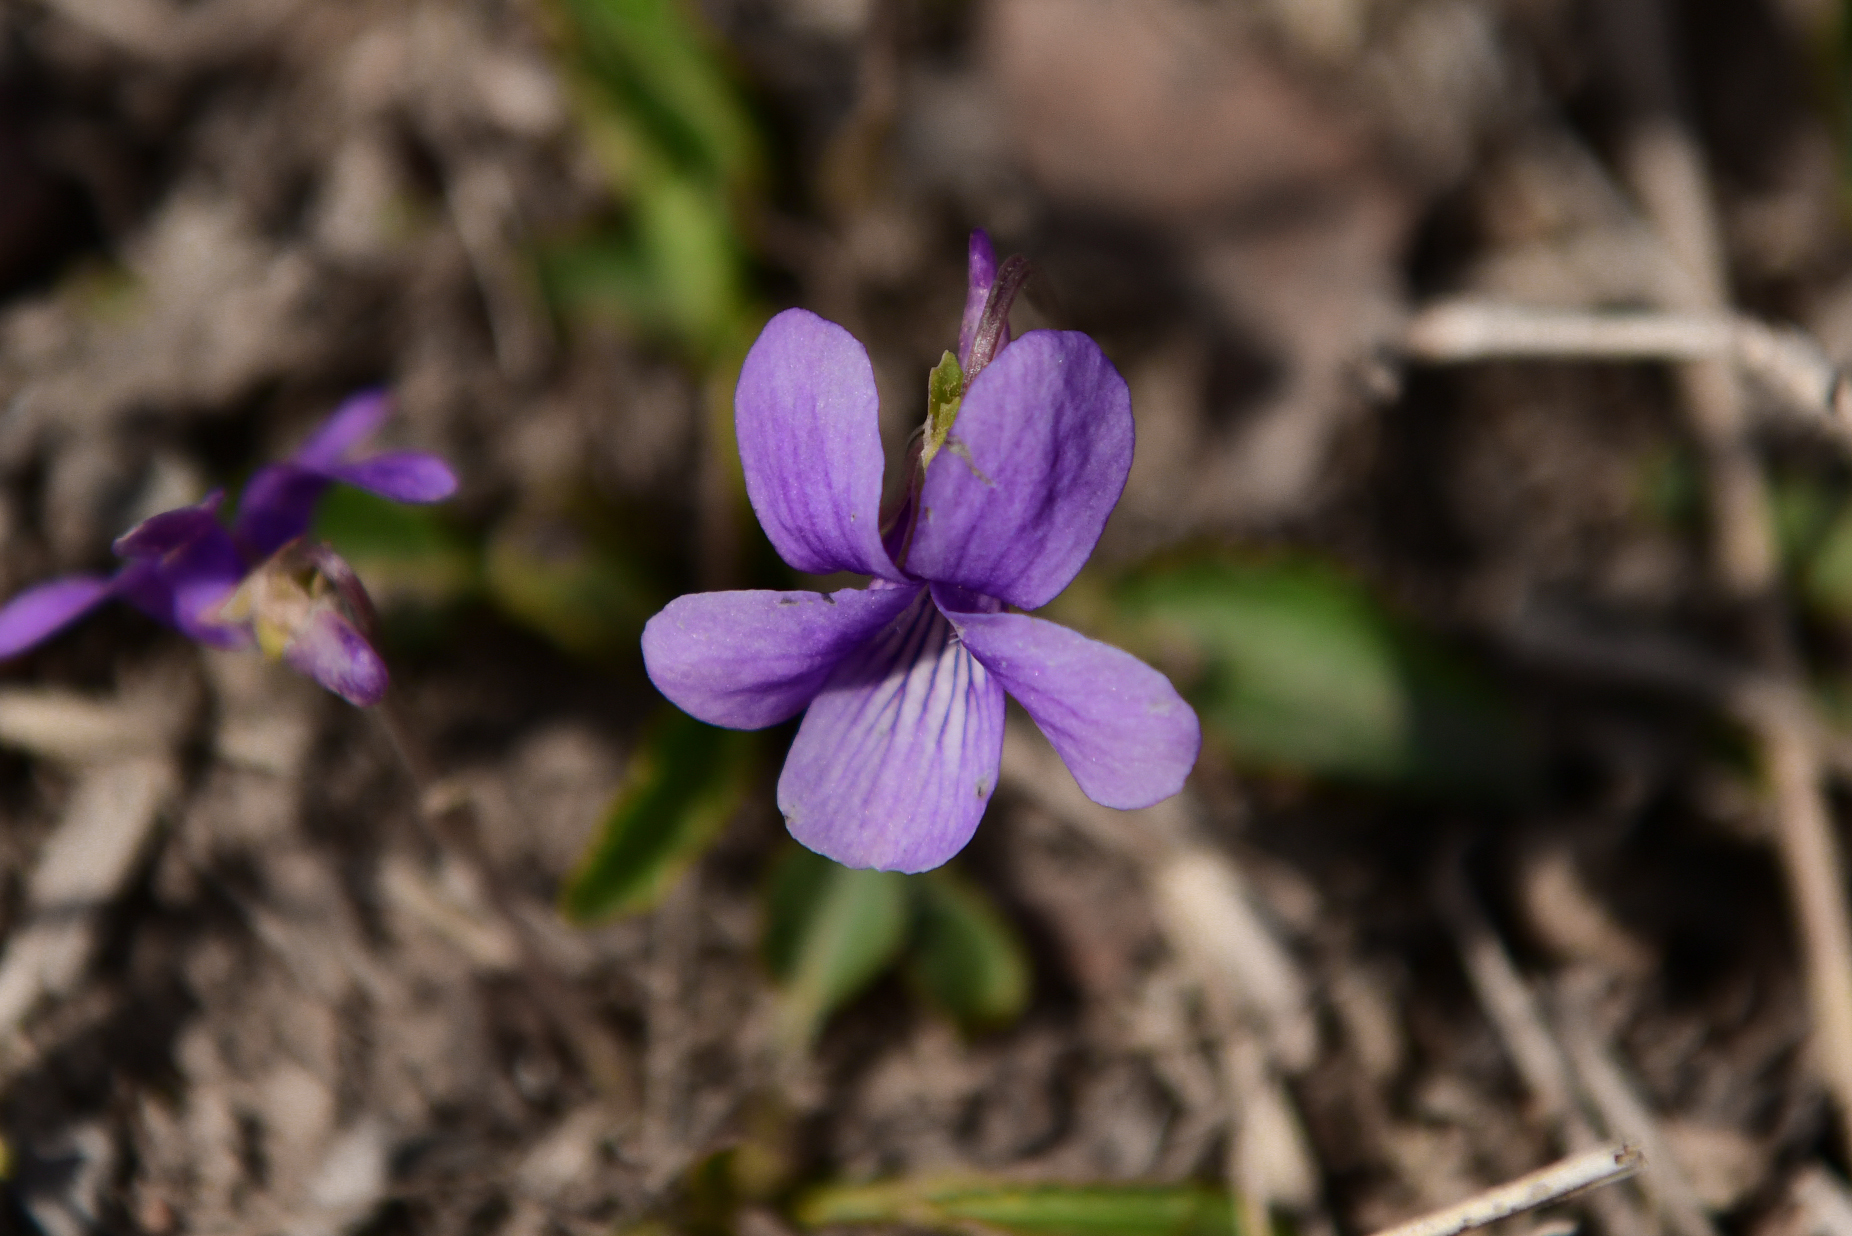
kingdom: Plantae
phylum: Tracheophyta
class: Magnoliopsida
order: Malpighiales
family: Violaceae
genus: Viola
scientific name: Viola prionantha
